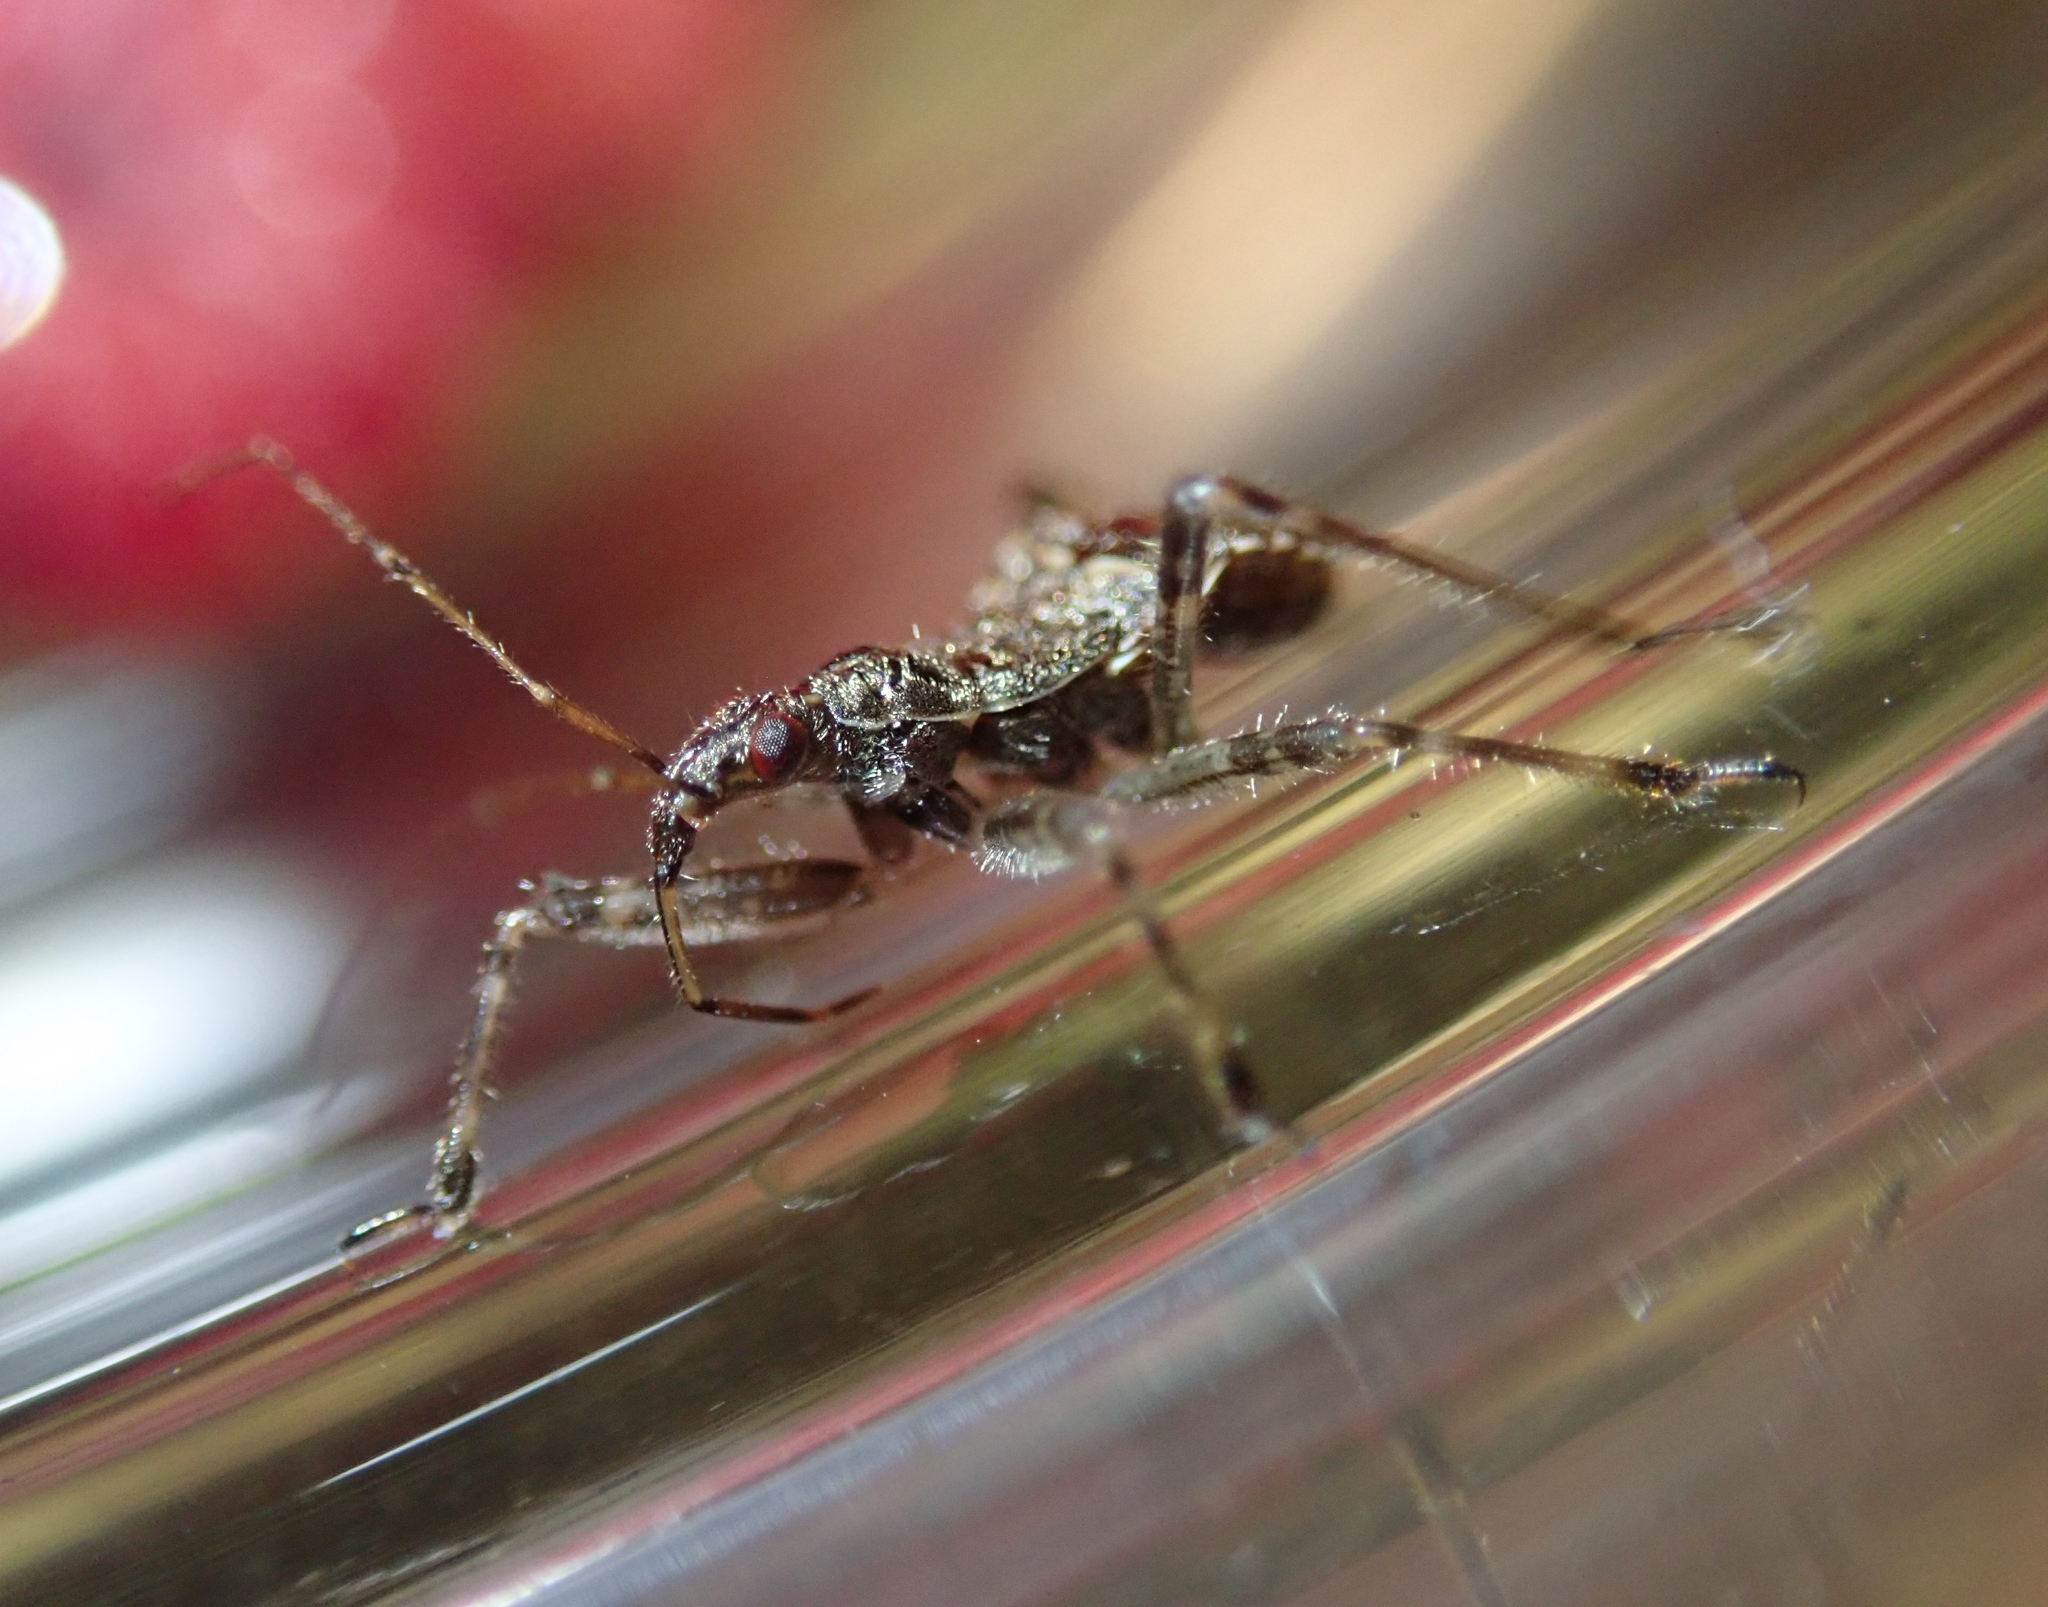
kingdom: Animalia
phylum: Arthropoda
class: Insecta
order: Hemiptera
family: Nabidae
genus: Himacerus
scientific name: Himacerus apterus
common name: Tree damsel bug
